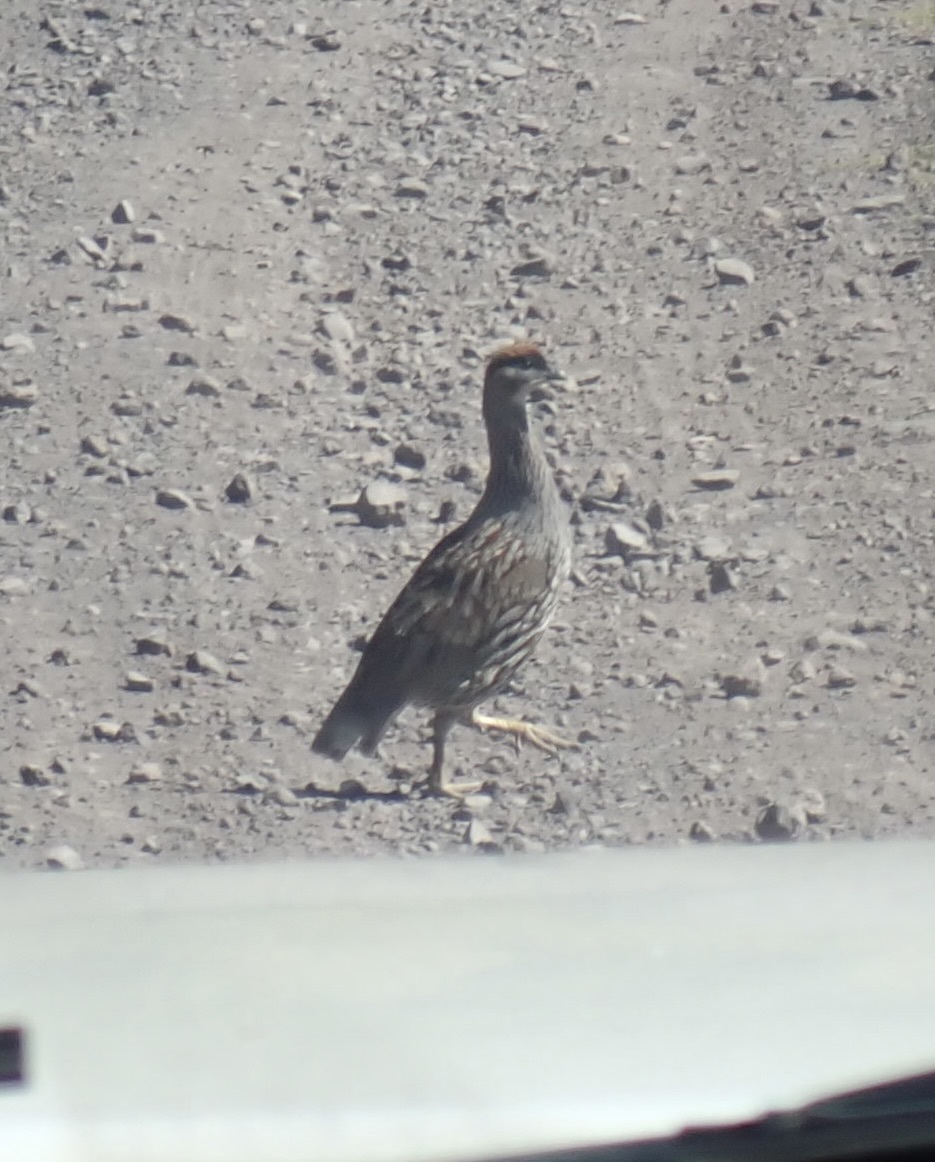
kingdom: Animalia
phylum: Chordata
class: Aves
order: Galliformes
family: Phasianidae
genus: Pternistis
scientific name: Pternistis erckelii
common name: Erckel's francolin
